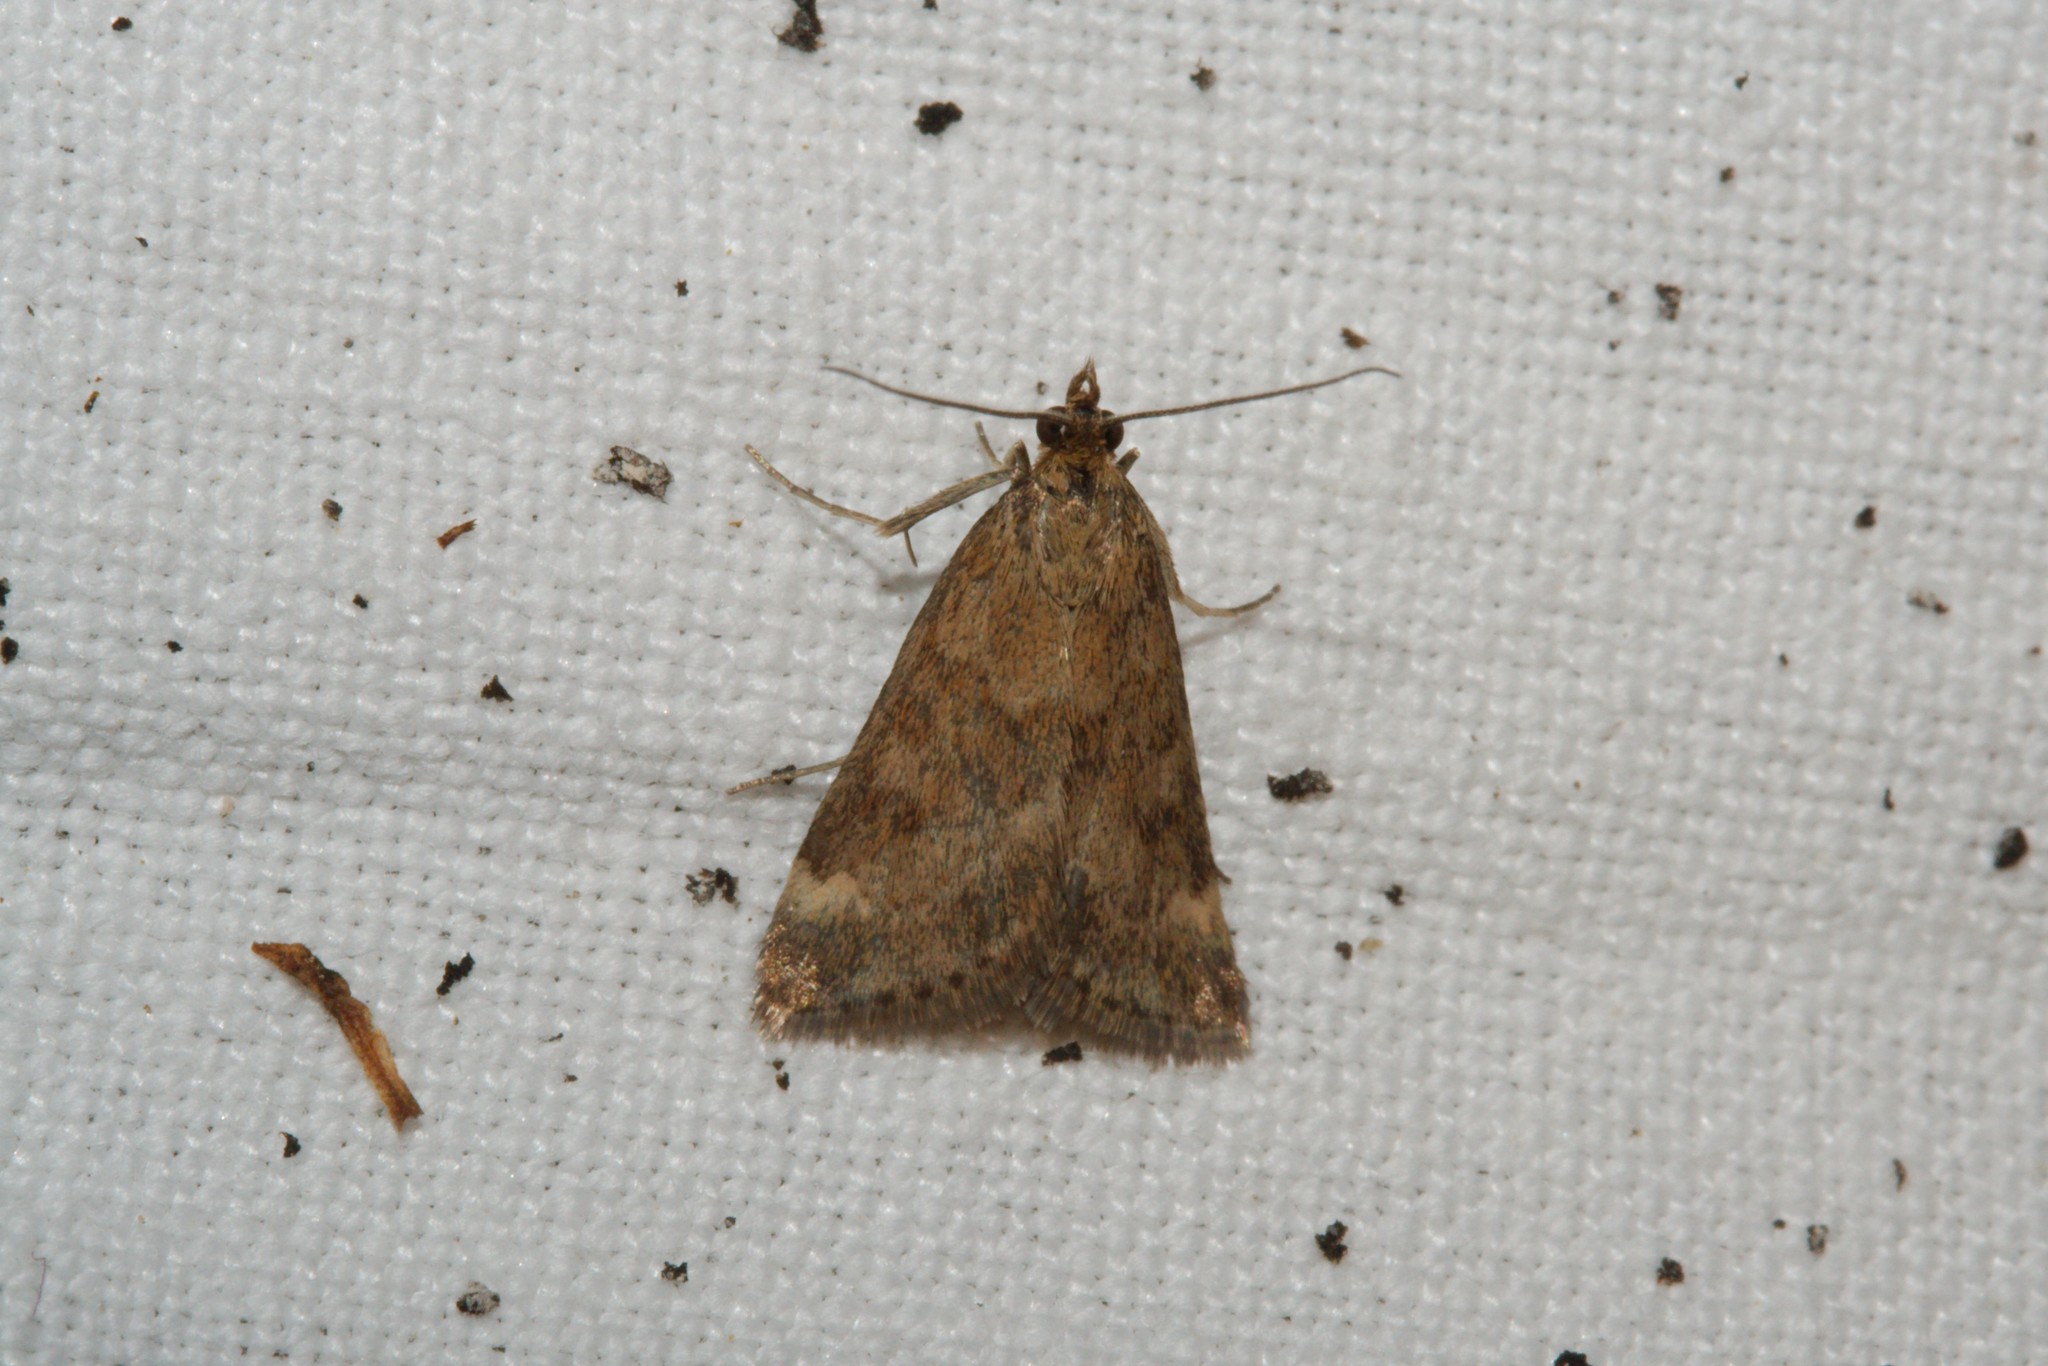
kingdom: Animalia
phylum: Arthropoda
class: Insecta
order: Lepidoptera
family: Crambidae
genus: Pyrausta
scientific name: Pyrausta despicata
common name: Straw-barred pearl
